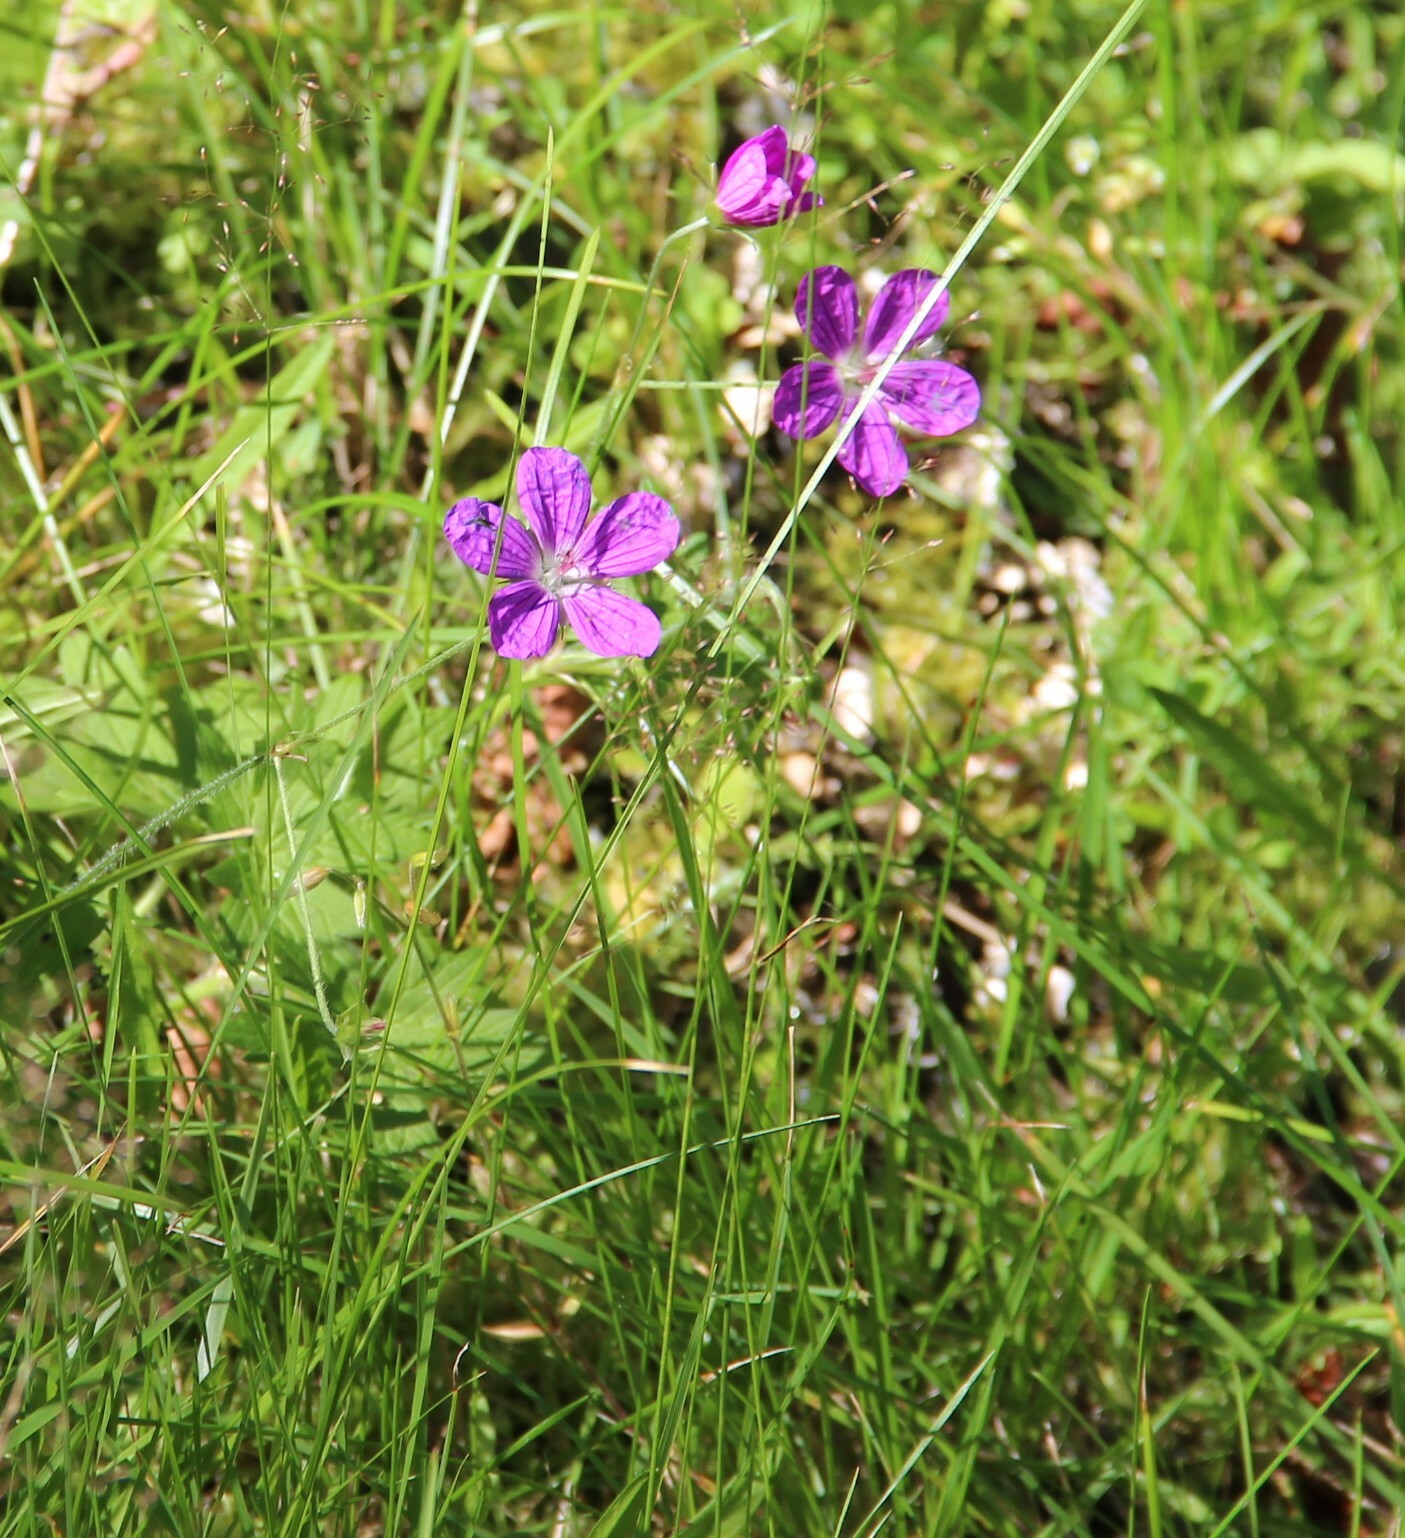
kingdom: Plantae
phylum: Tracheophyta
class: Magnoliopsida
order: Geraniales
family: Geraniaceae
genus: Geranium
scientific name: Geranium palustre
